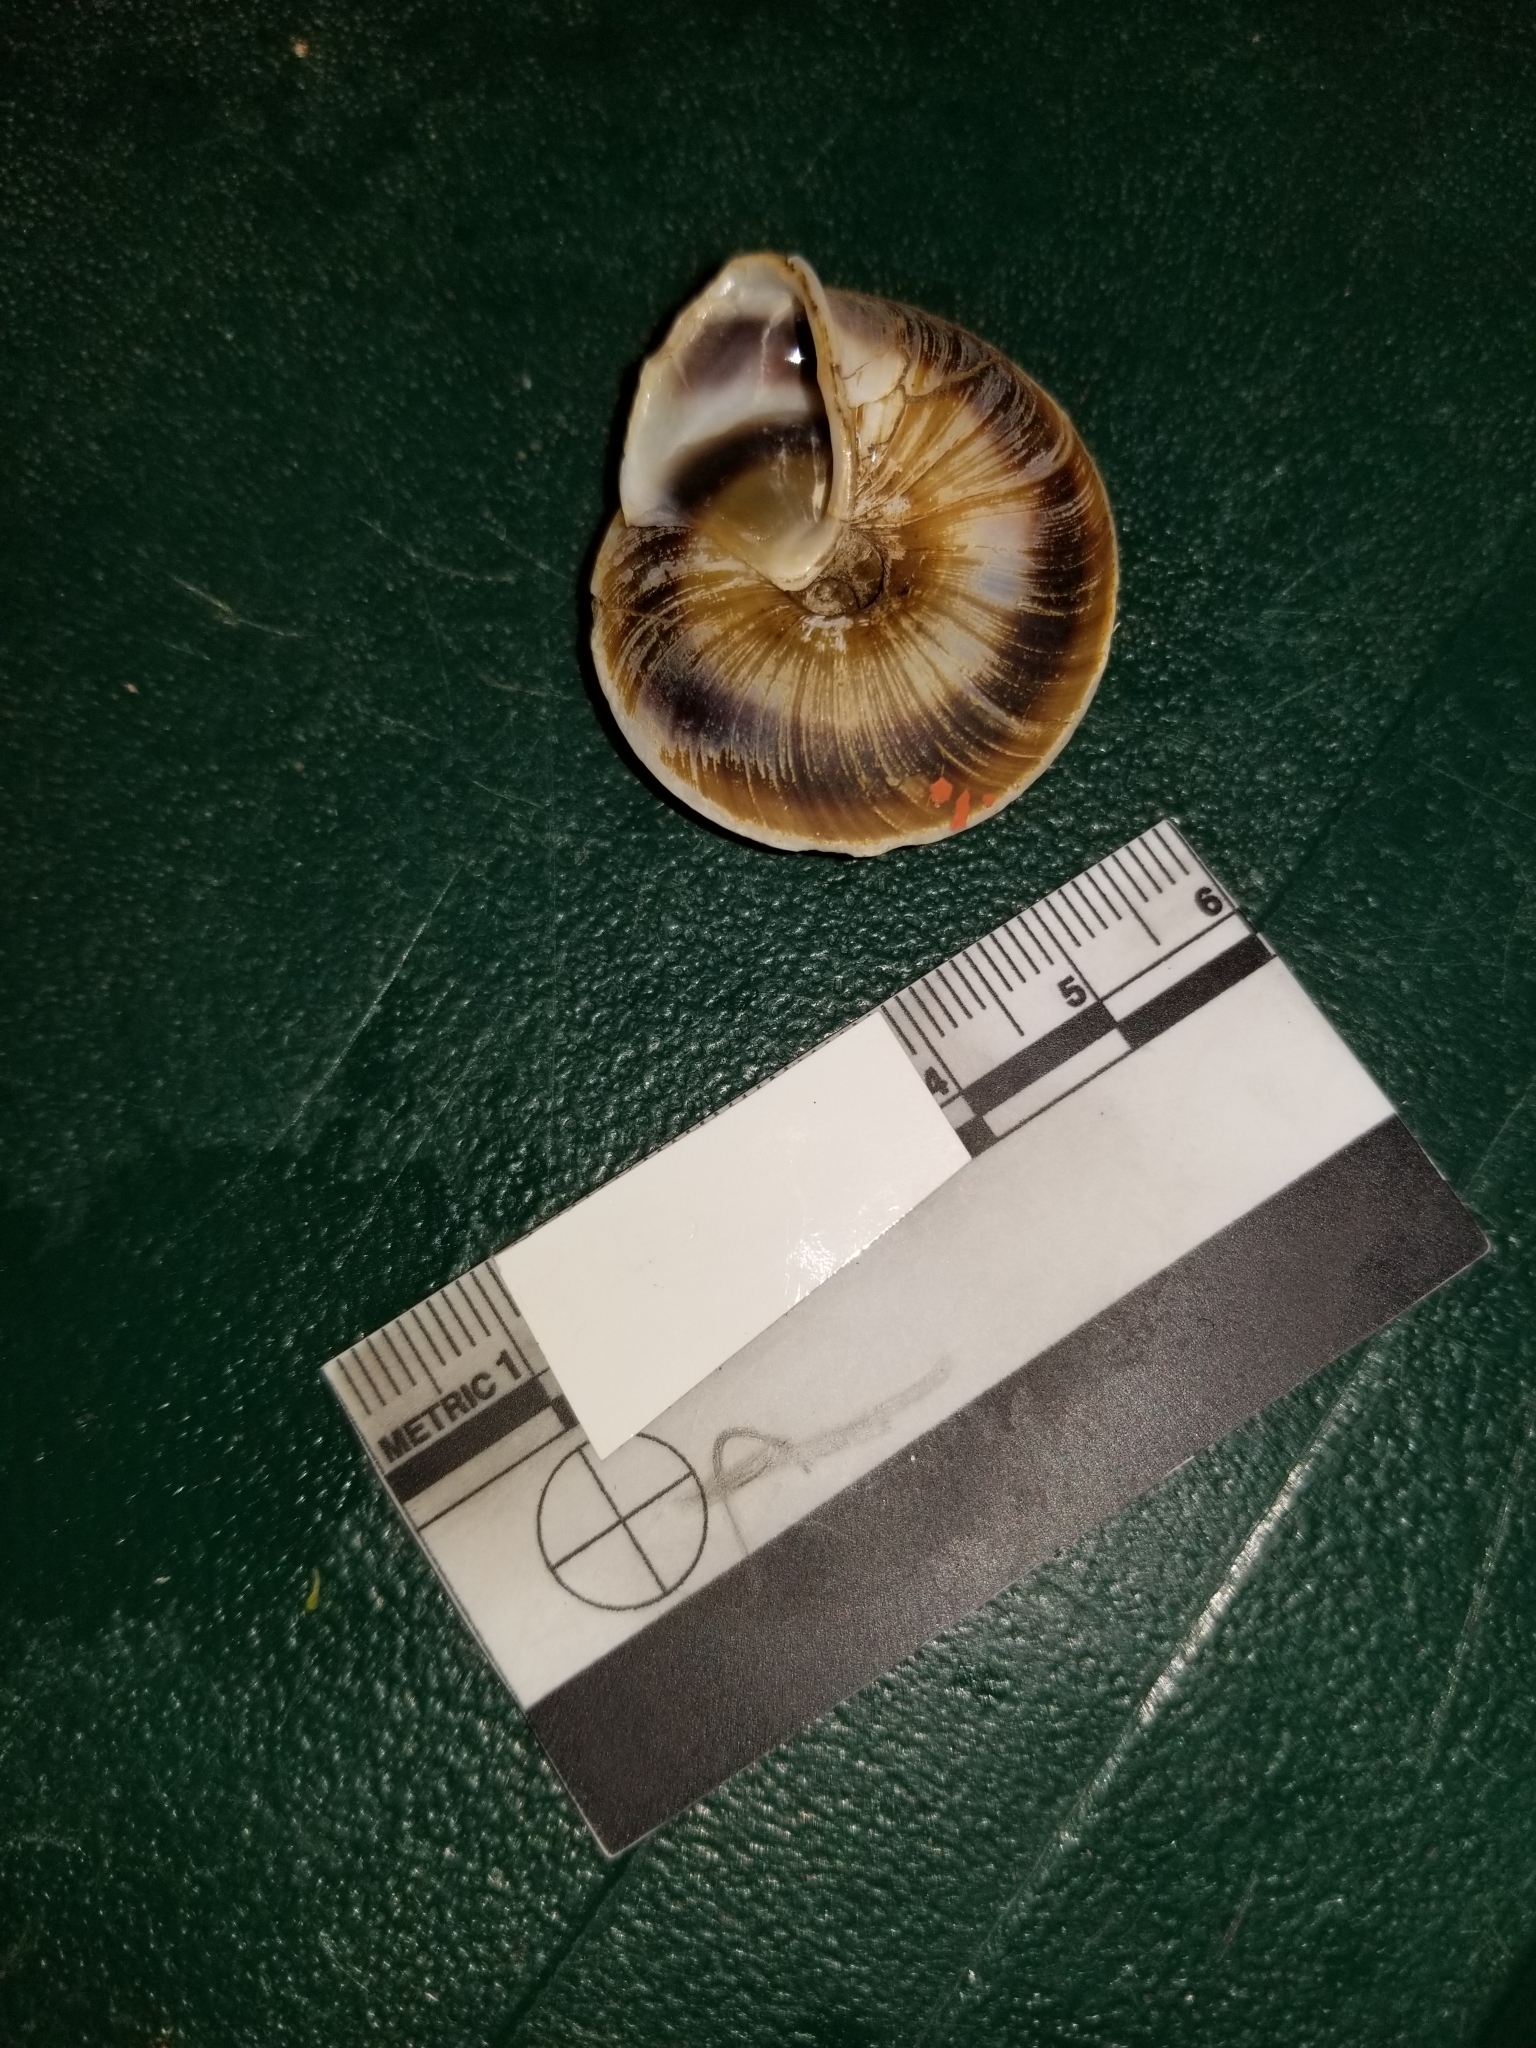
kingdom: Animalia
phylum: Mollusca
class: Gastropoda
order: Stylommatophora
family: Solaropsidae
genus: Caracolus
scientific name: Caracolus marginella
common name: Banded caracol
